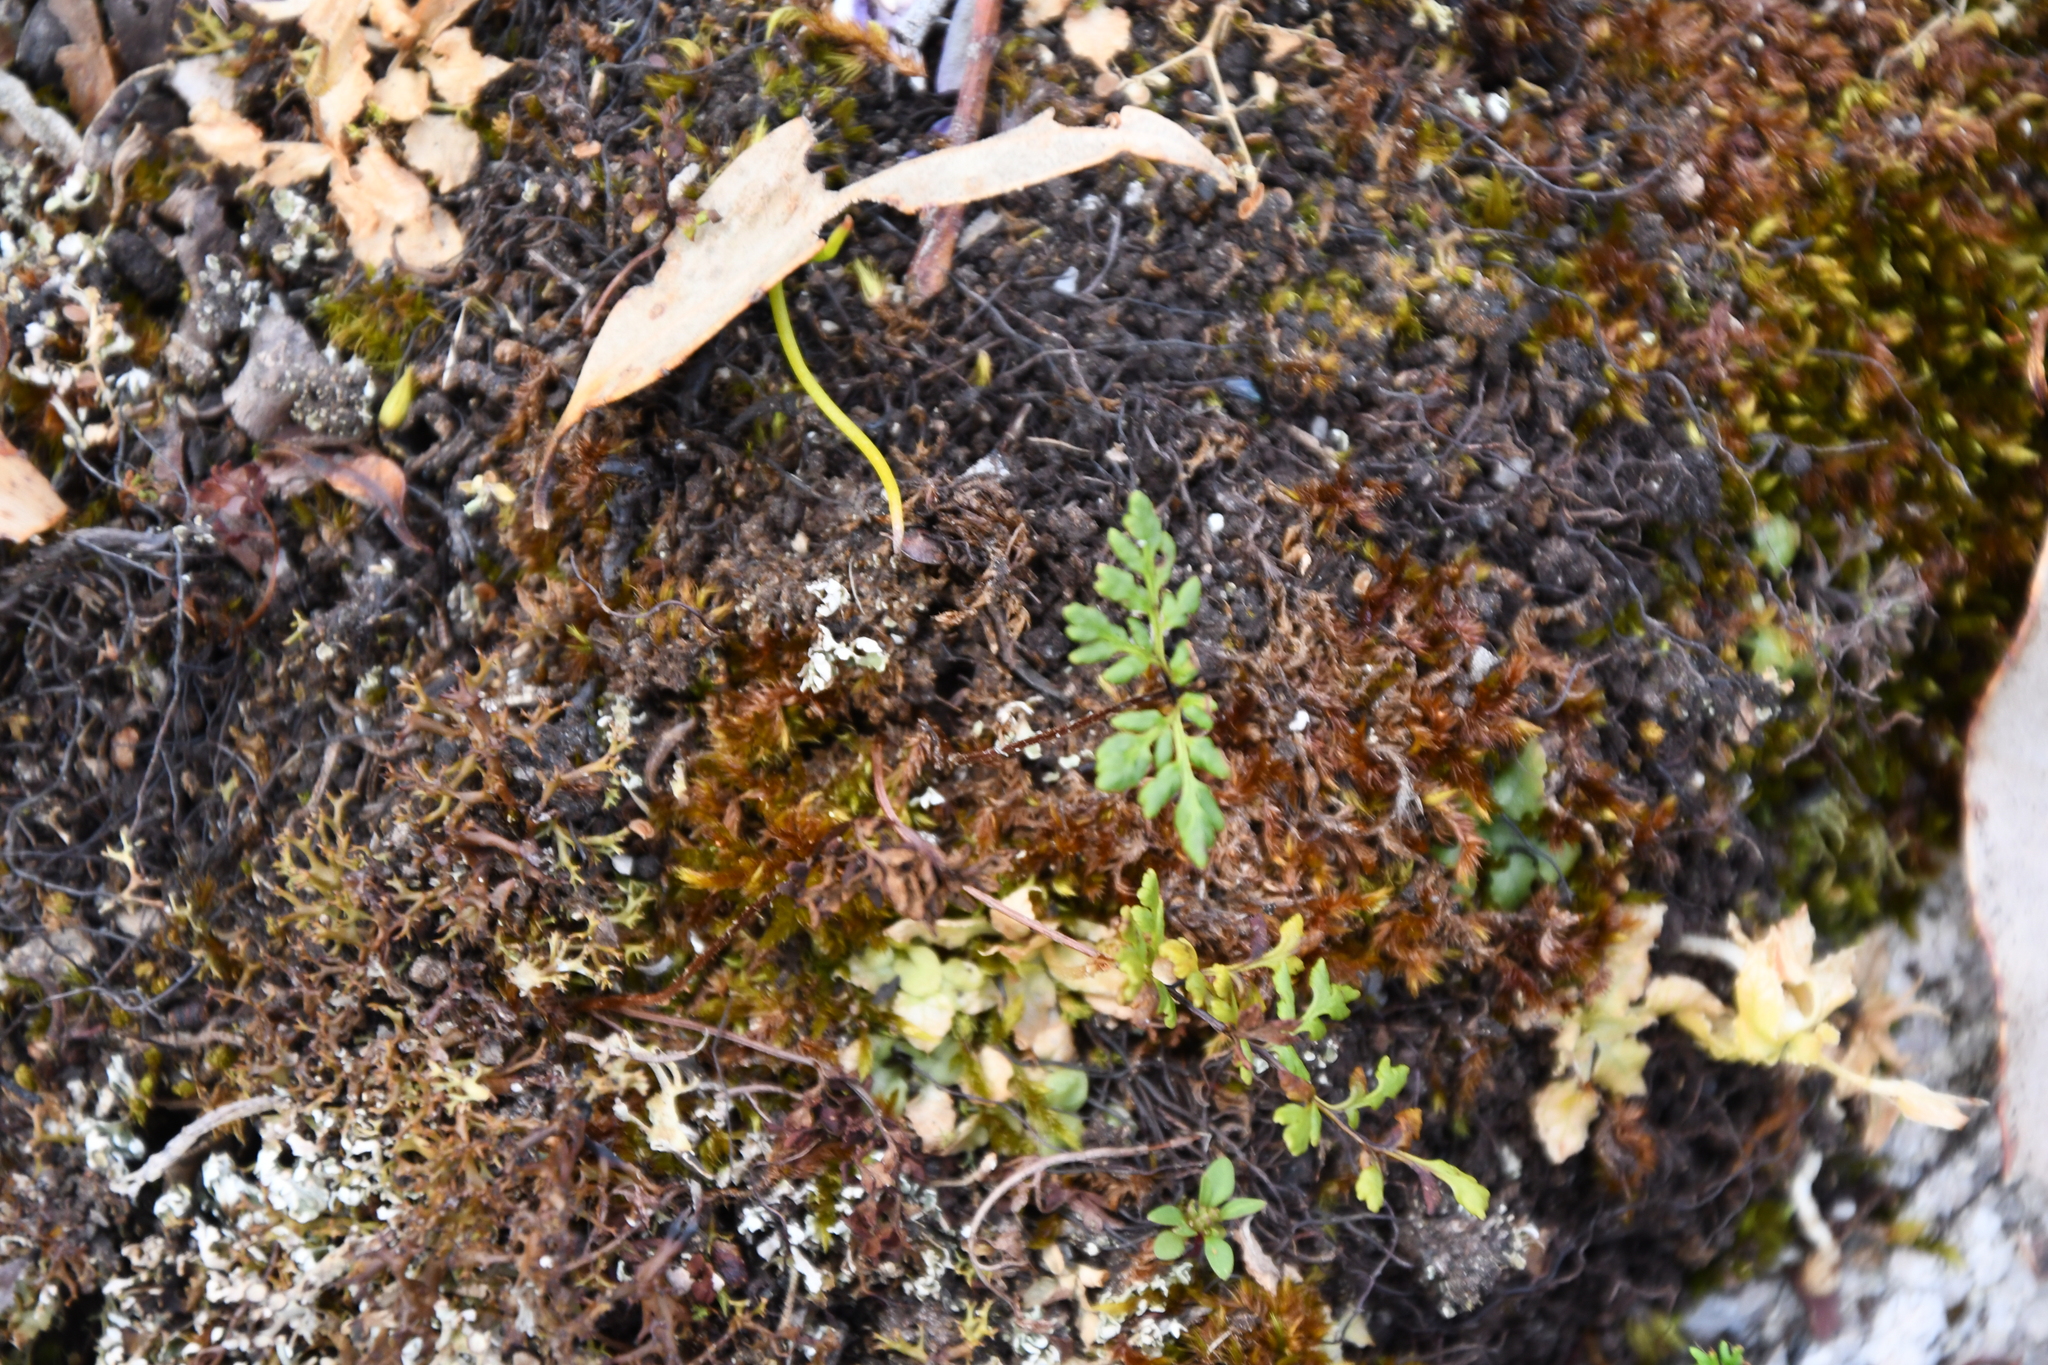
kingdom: Plantae
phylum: Tracheophyta
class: Polypodiopsida
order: Polypodiales
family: Pteridaceae
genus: Cheilanthes
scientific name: Cheilanthes sieberi
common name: Mulga fern
